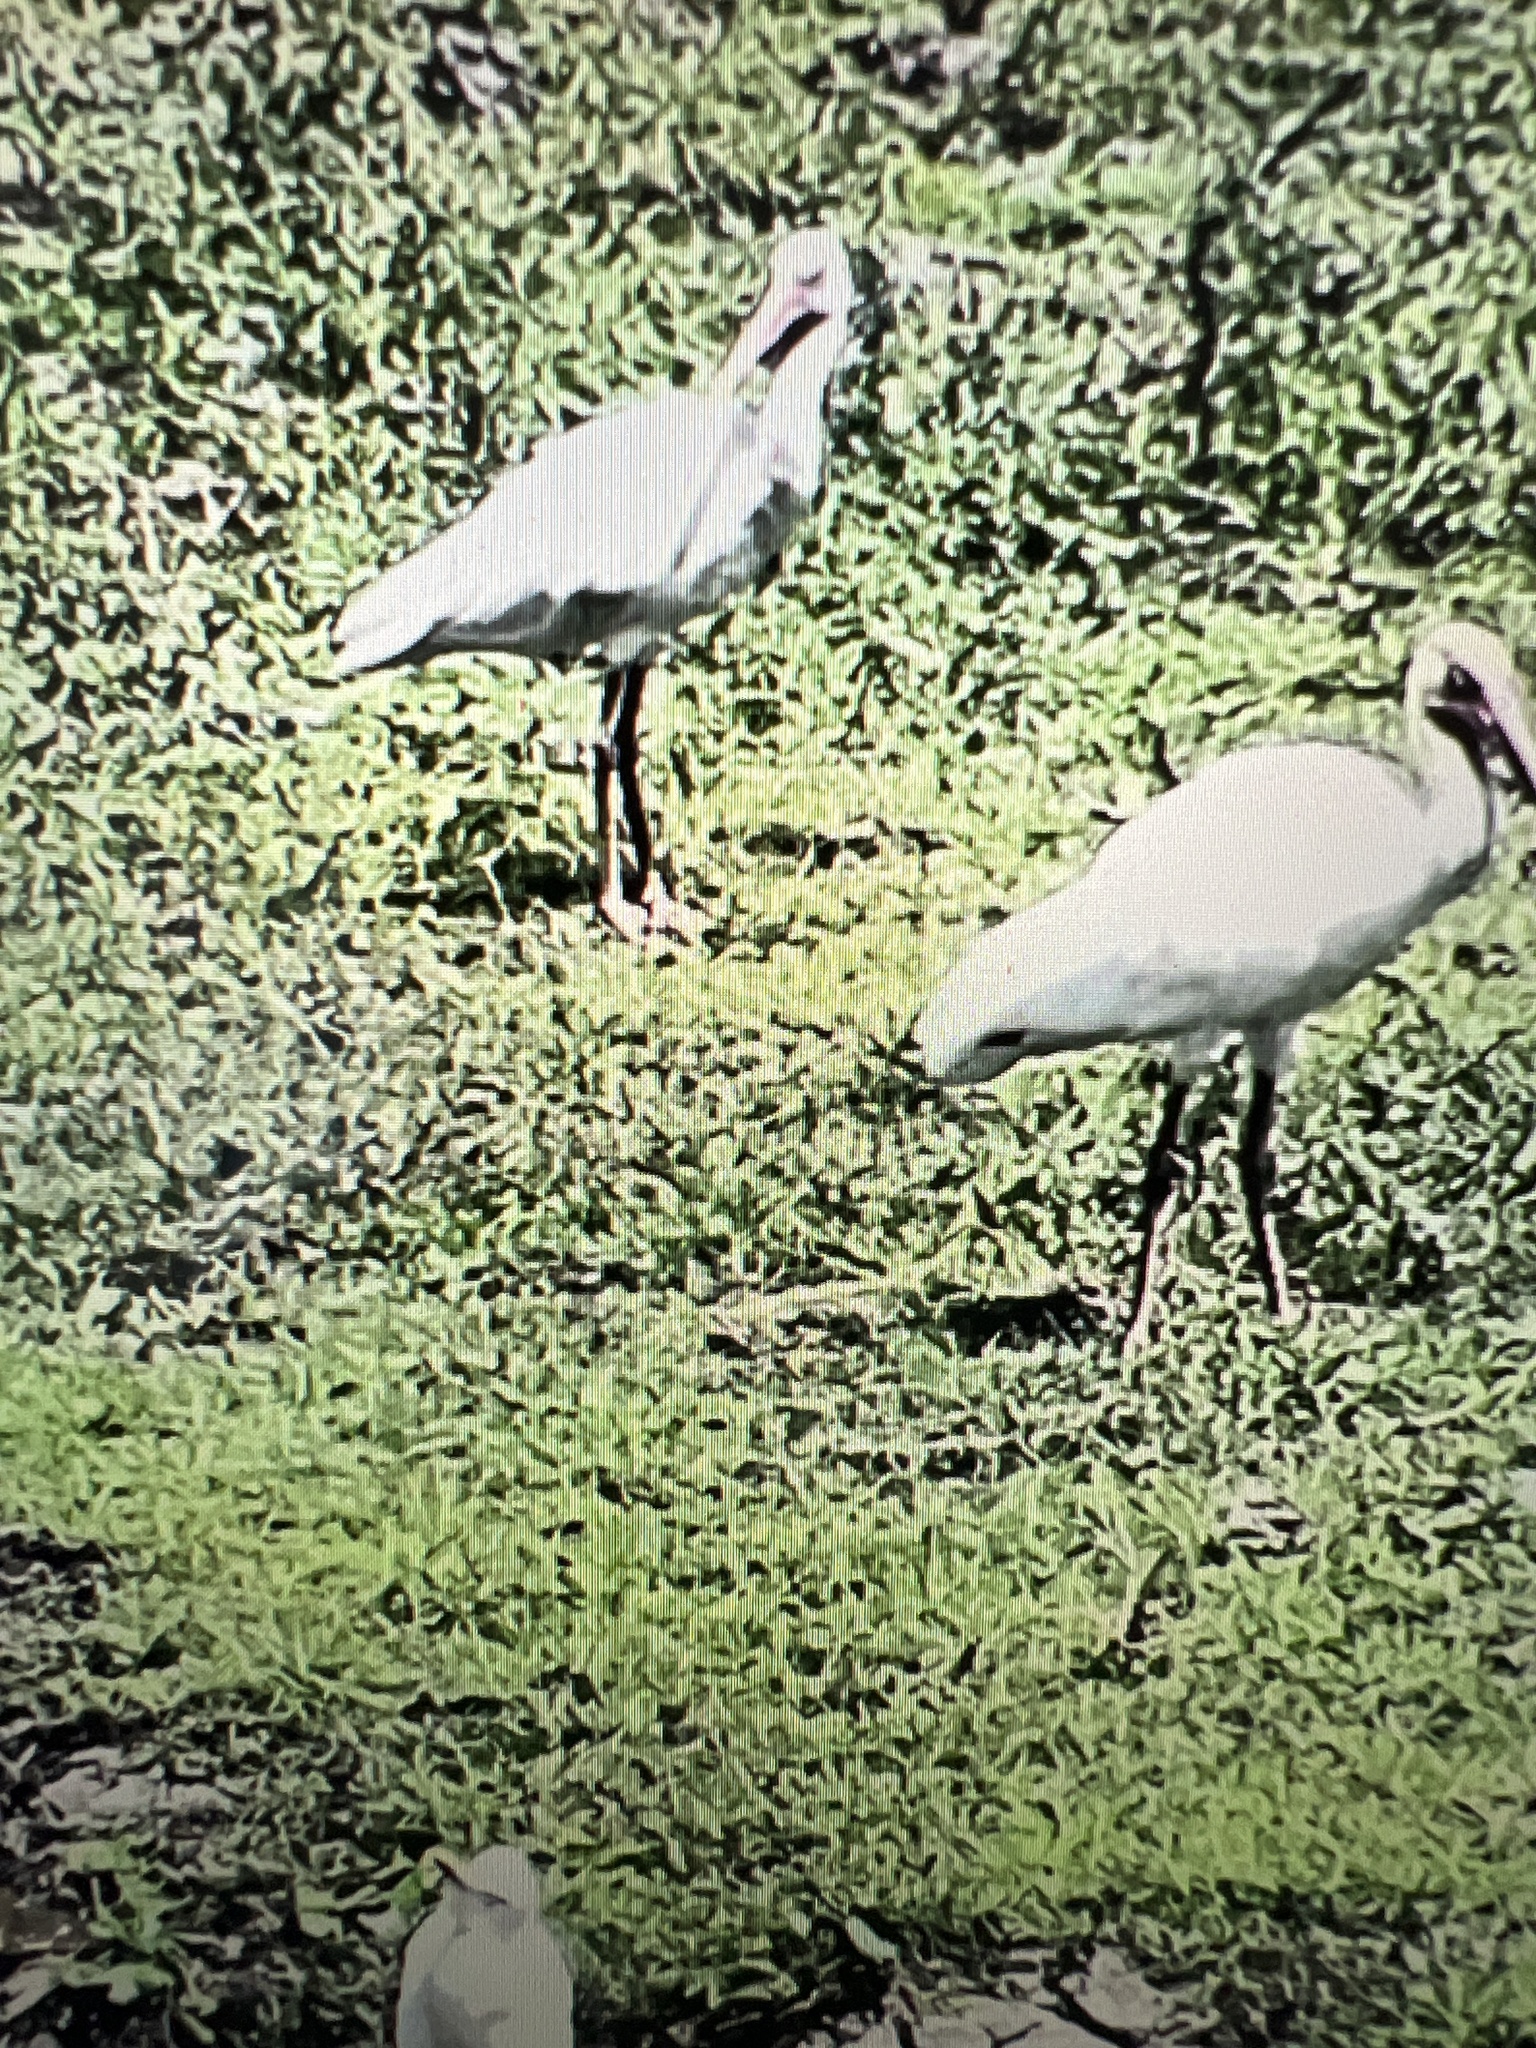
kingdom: Animalia
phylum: Chordata
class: Aves
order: Pelecaniformes
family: Threskiornithidae
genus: Eudocimus
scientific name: Eudocimus albus
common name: White ibis
